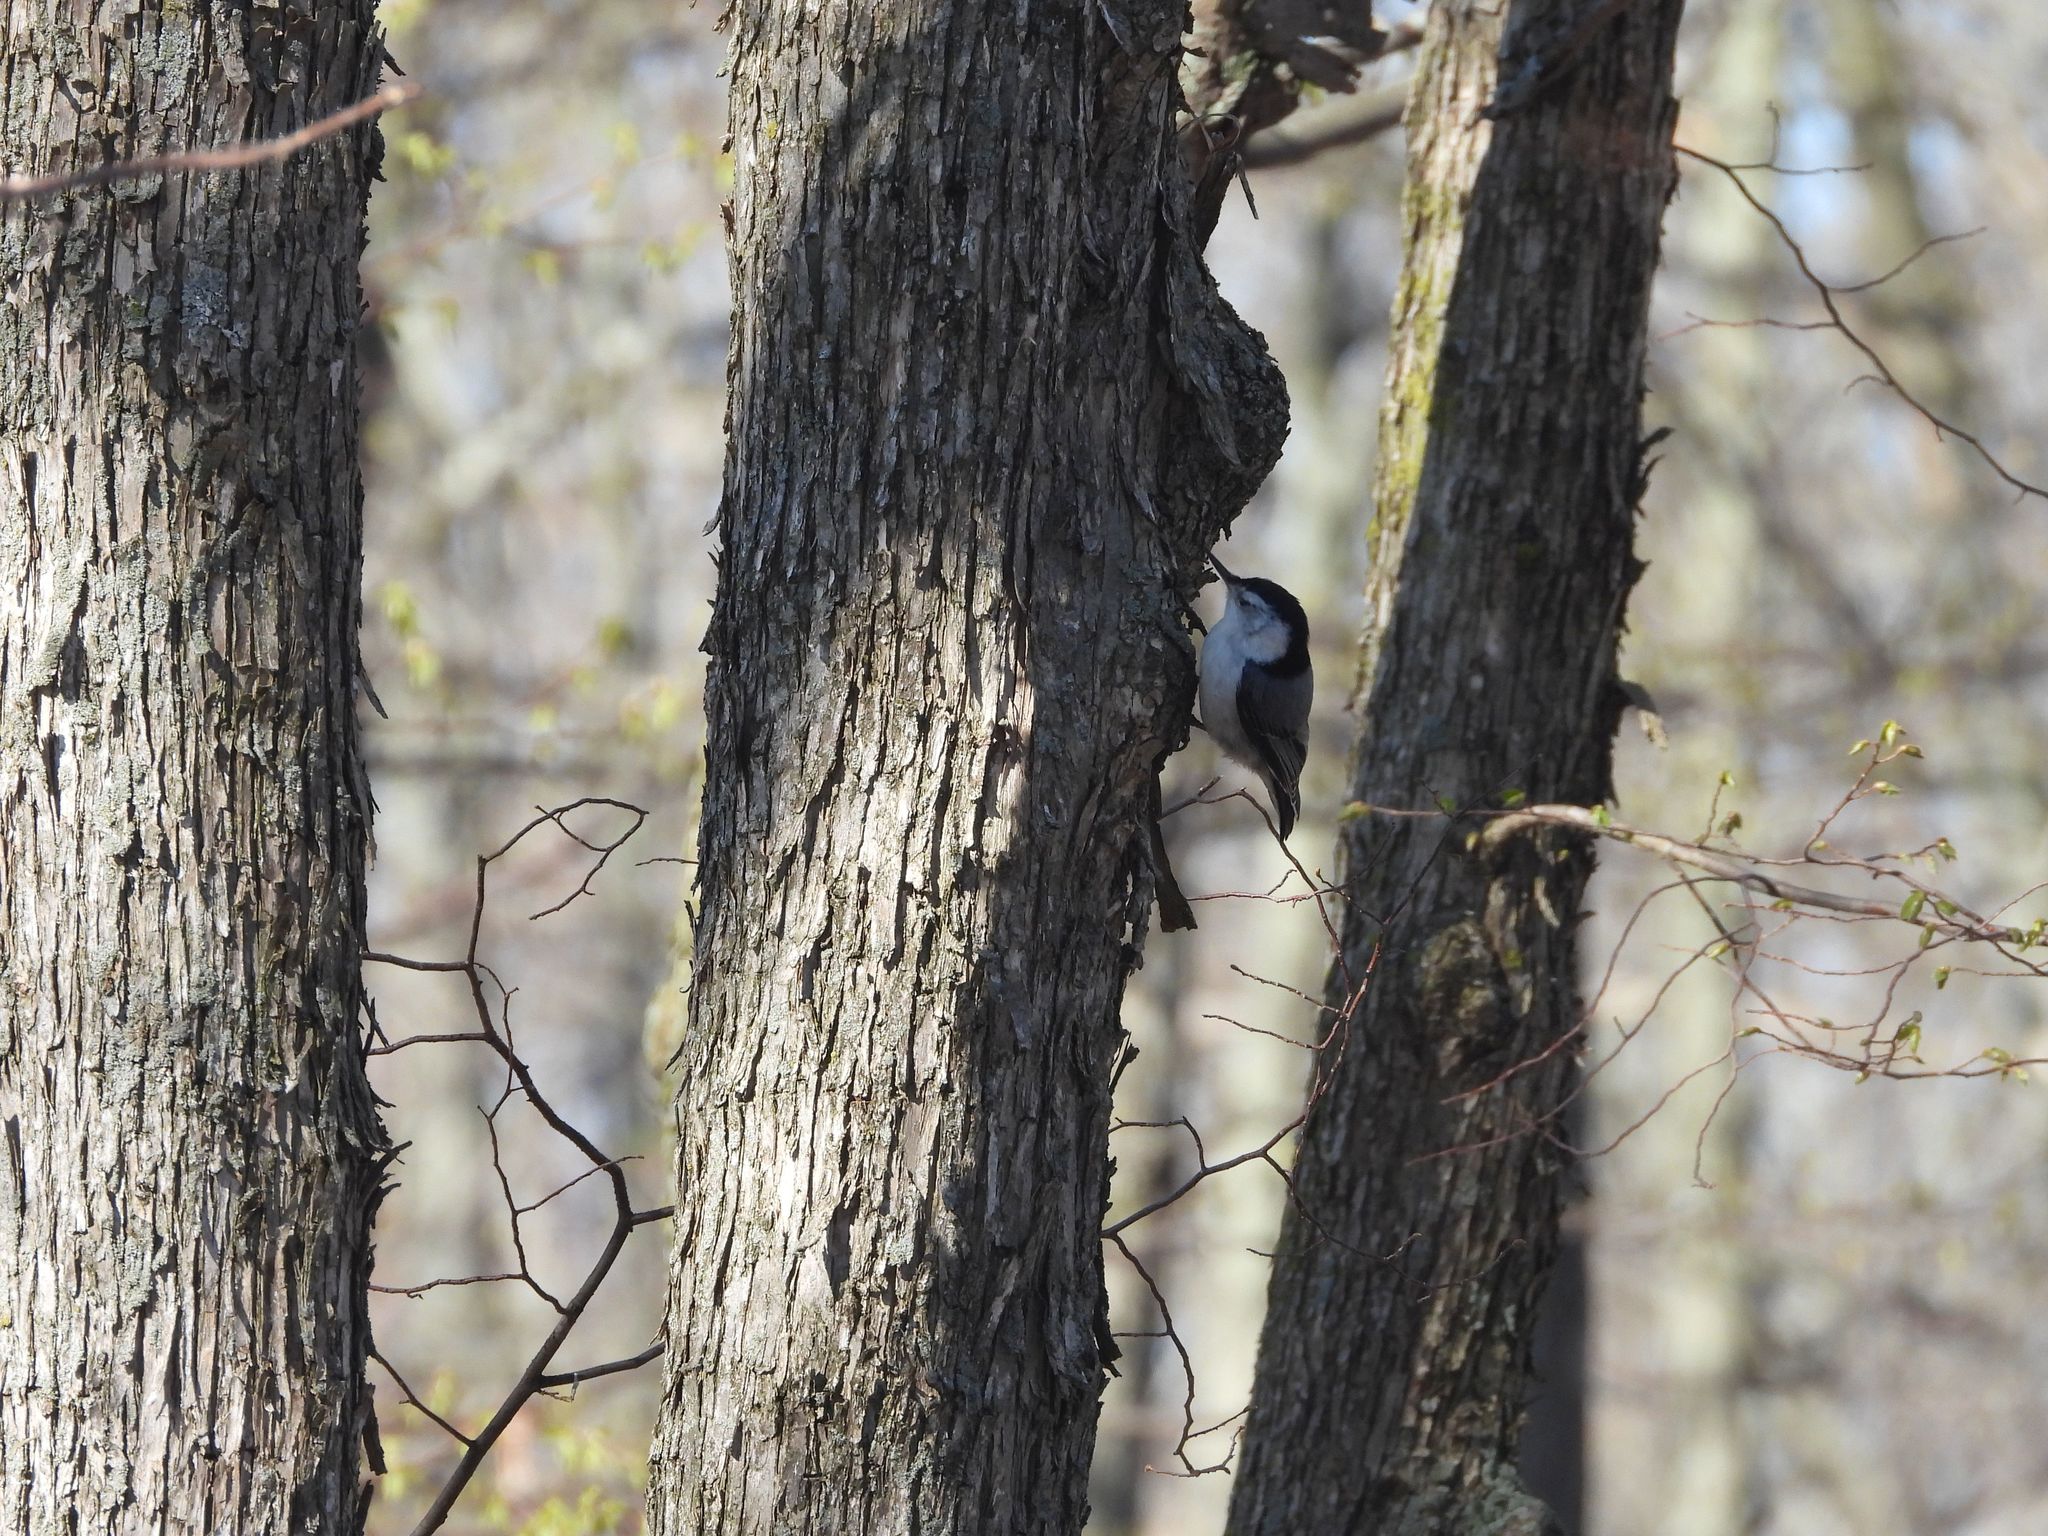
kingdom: Animalia
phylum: Chordata
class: Aves
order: Passeriformes
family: Sittidae
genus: Sitta
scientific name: Sitta carolinensis
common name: White-breasted nuthatch
